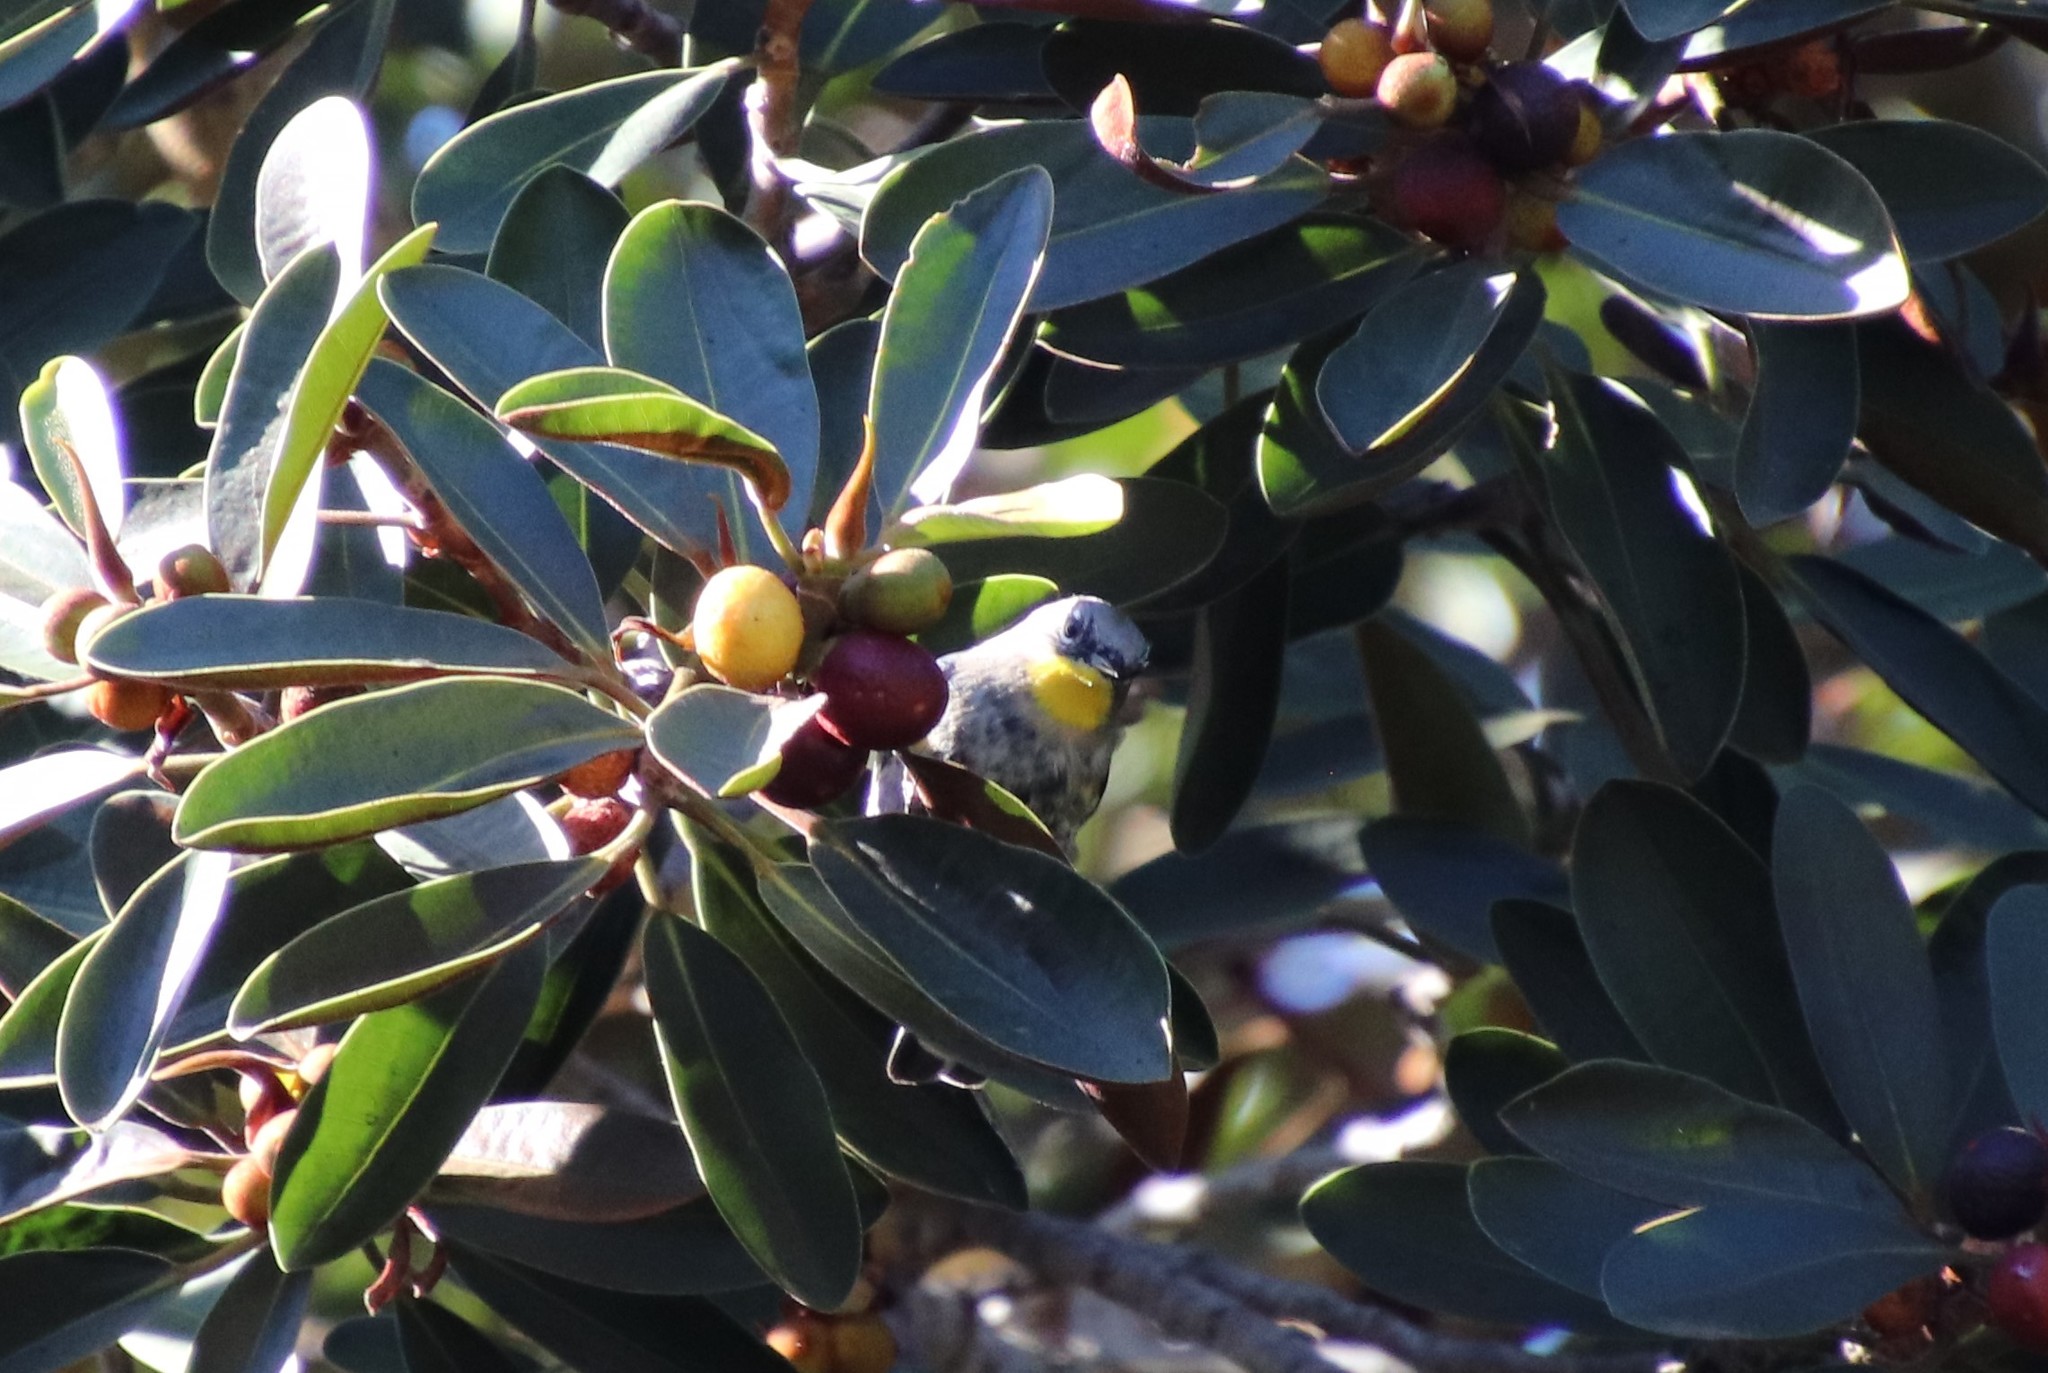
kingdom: Animalia
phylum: Chordata
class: Aves
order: Passeriformes
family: Parulidae
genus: Setophaga
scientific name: Setophaga auduboni
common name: Audubon's warbler
